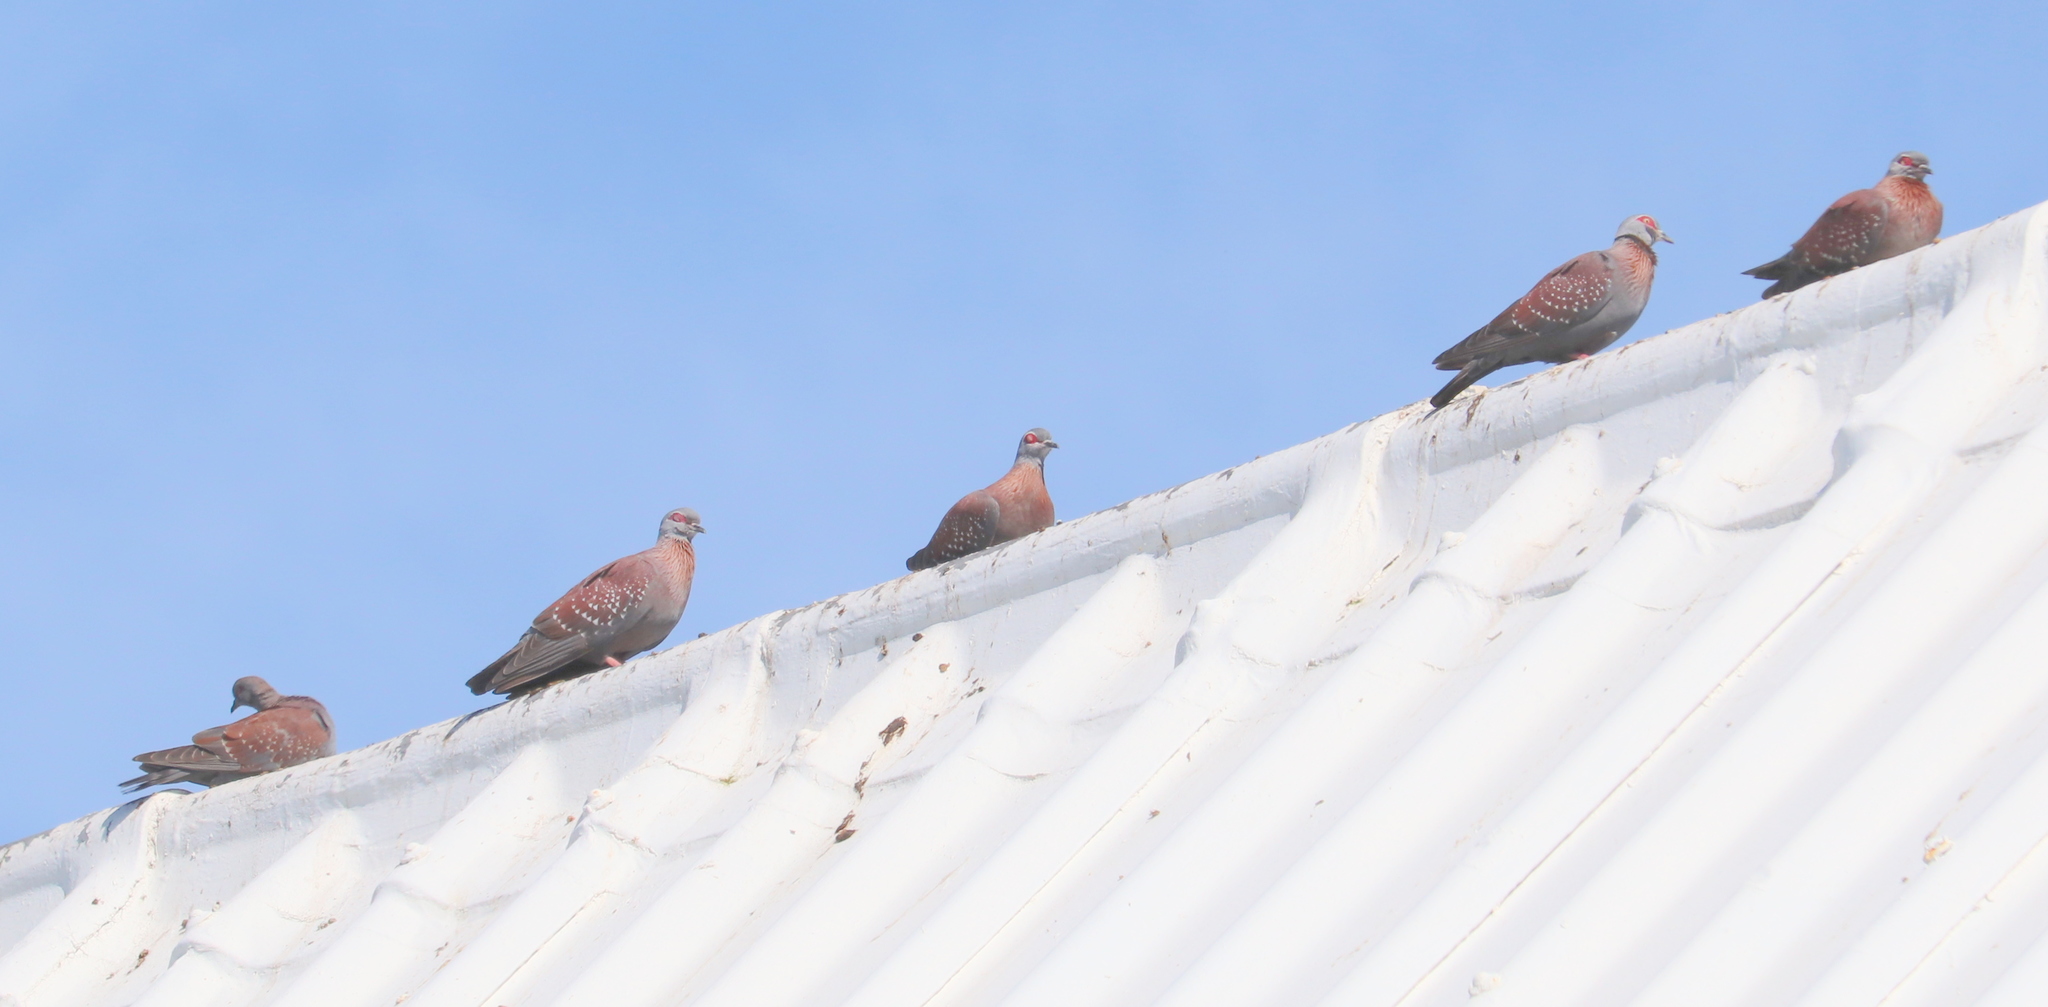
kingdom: Animalia
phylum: Chordata
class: Aves
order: Columbiformes
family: Columbidae
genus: Columba
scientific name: Columba guinea
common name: Speckled pigeon
